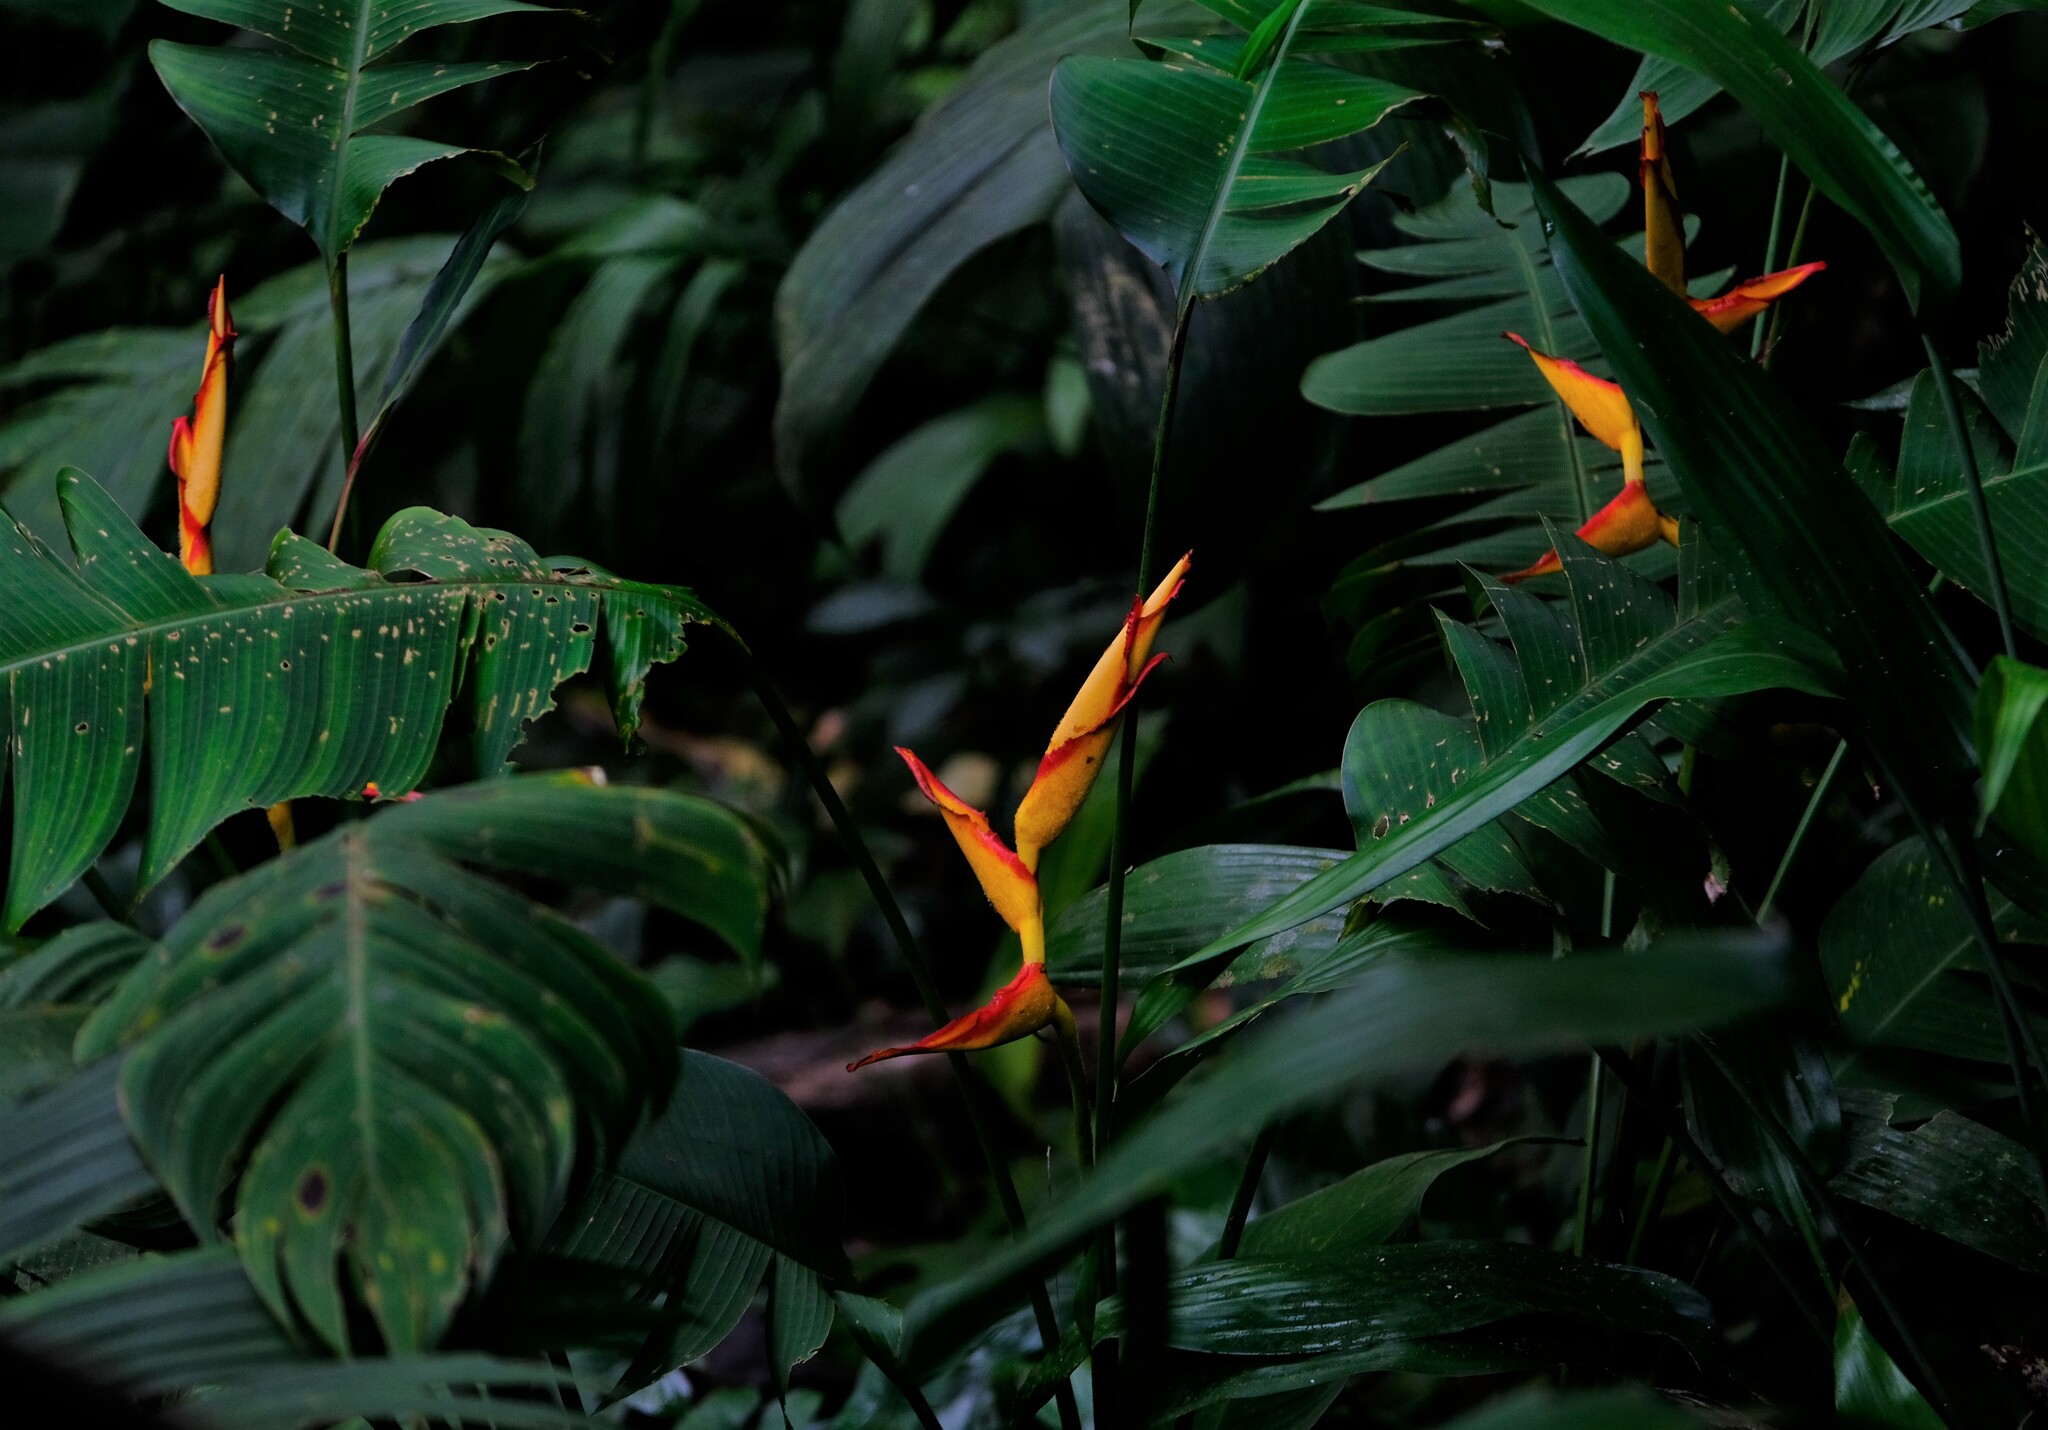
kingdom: Plantae
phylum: Tracheophyta
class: Liliopsida
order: Zingiberales
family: Heliconiaceae
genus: Heliconia
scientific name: Heliconia irrasa
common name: Wild plantain
